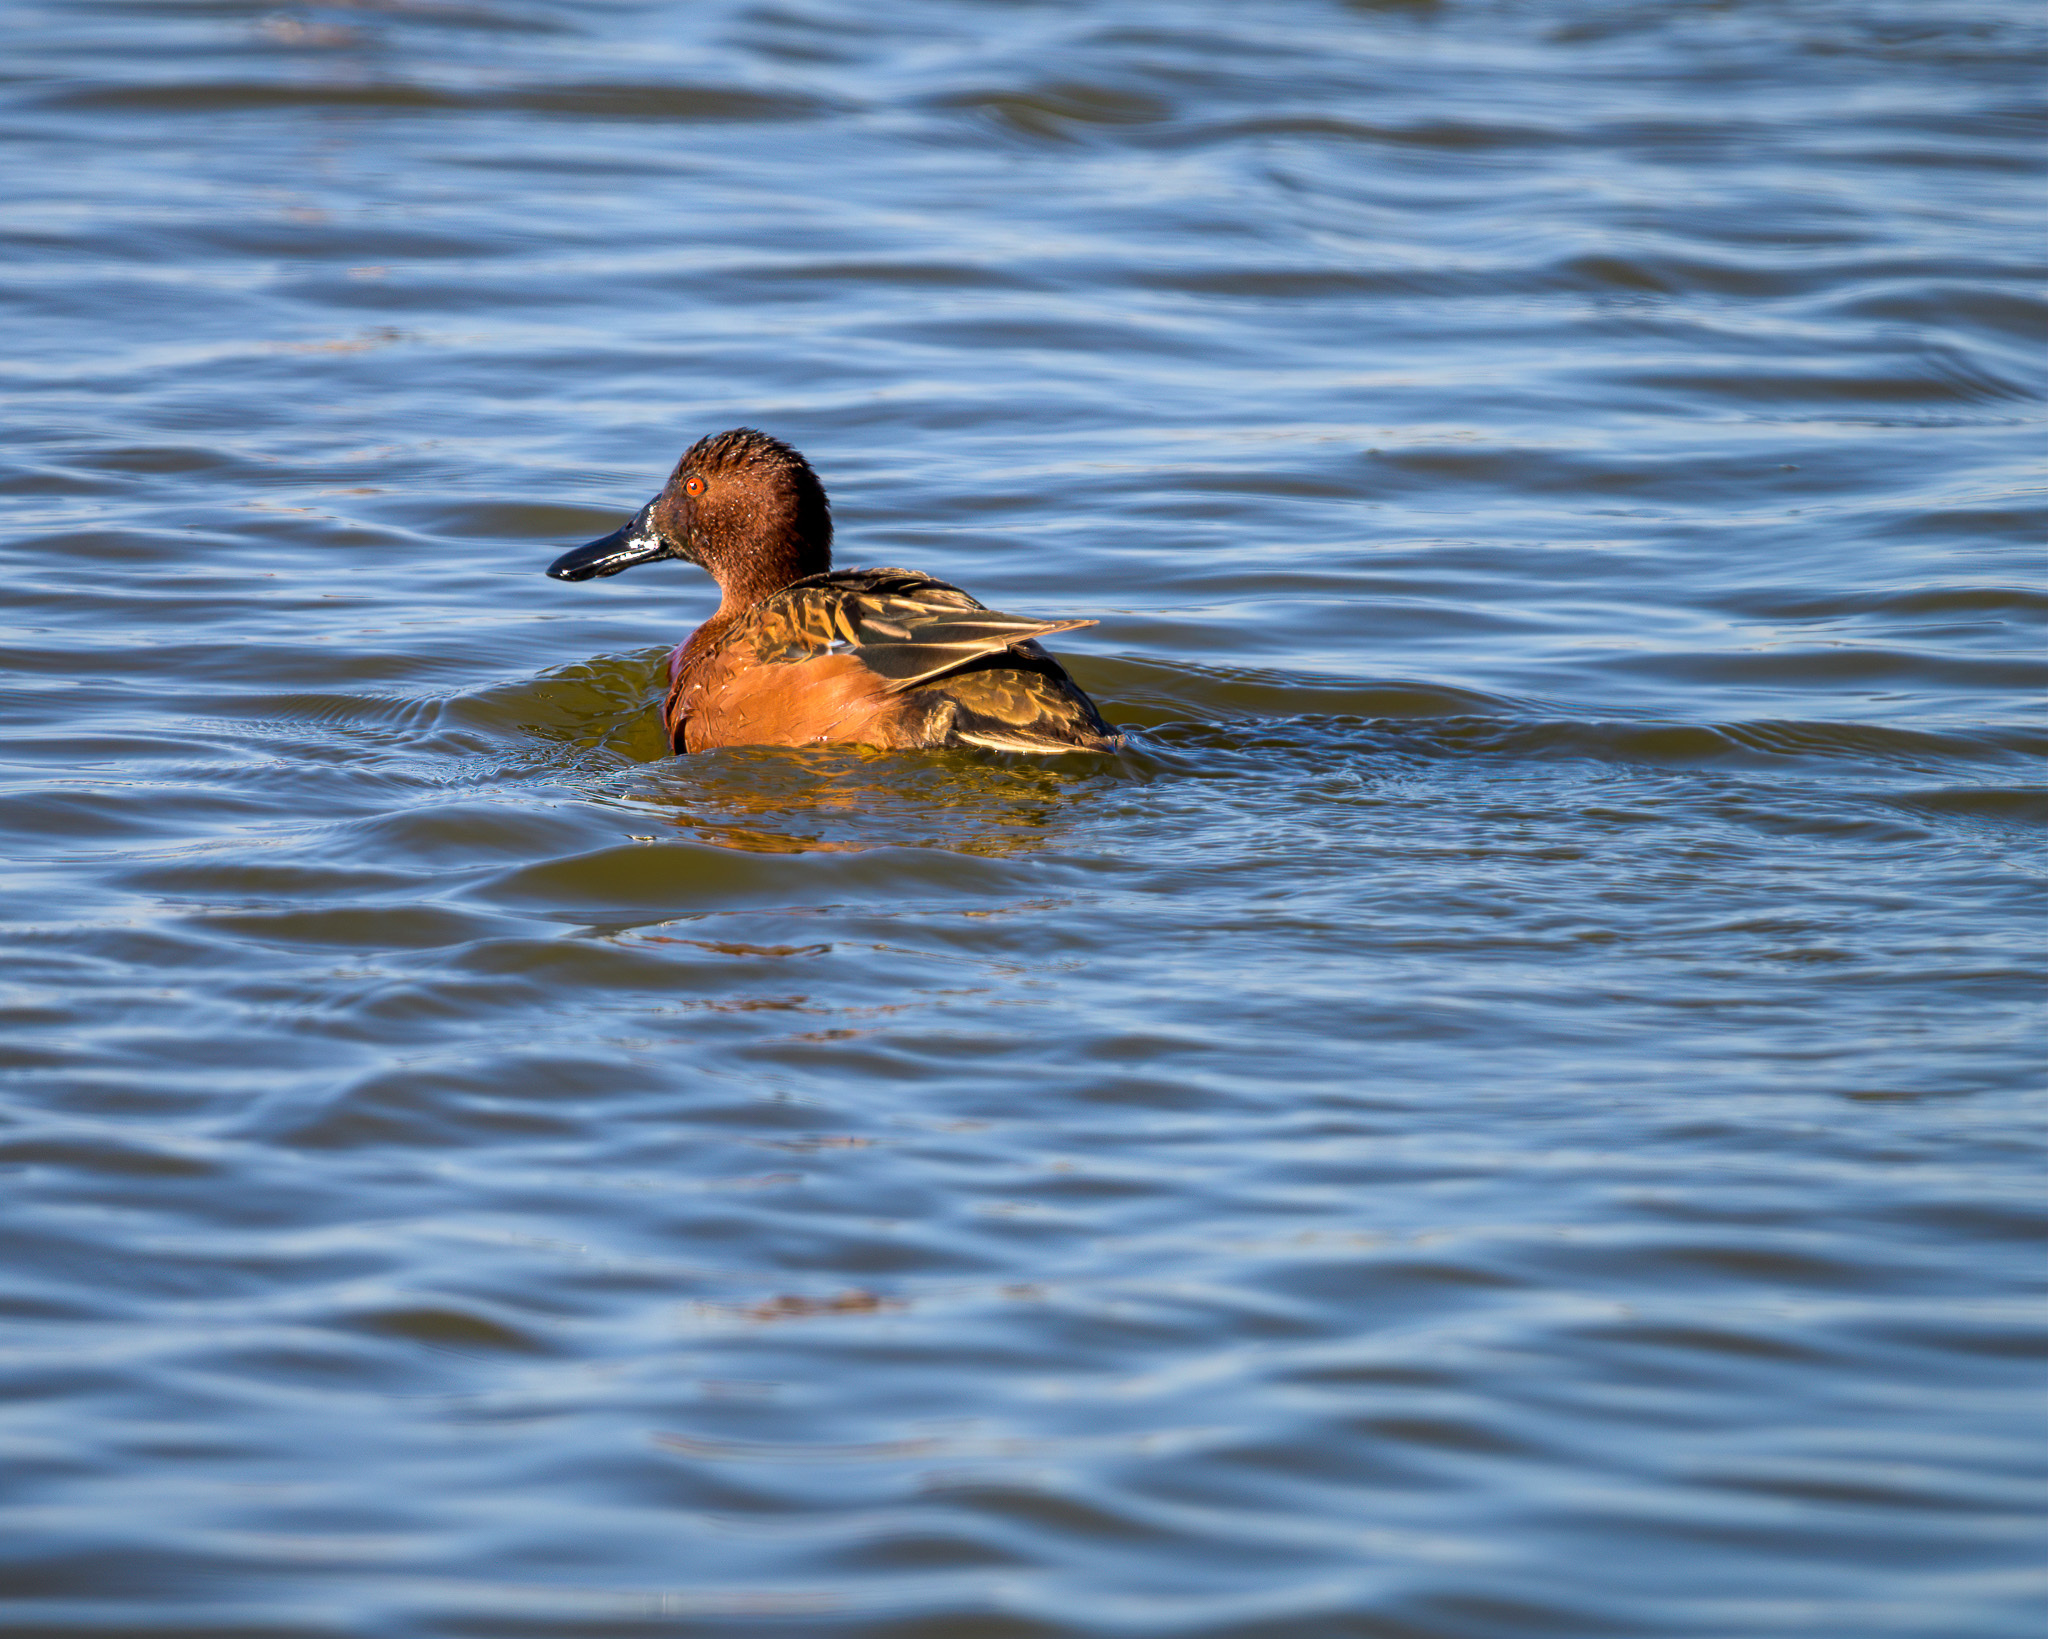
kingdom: Animalia
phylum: Chordata
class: Aves
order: Anseriformes
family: Anatidae
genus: Spatula
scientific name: Spatula cyanoptera
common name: Cinnamon teal
